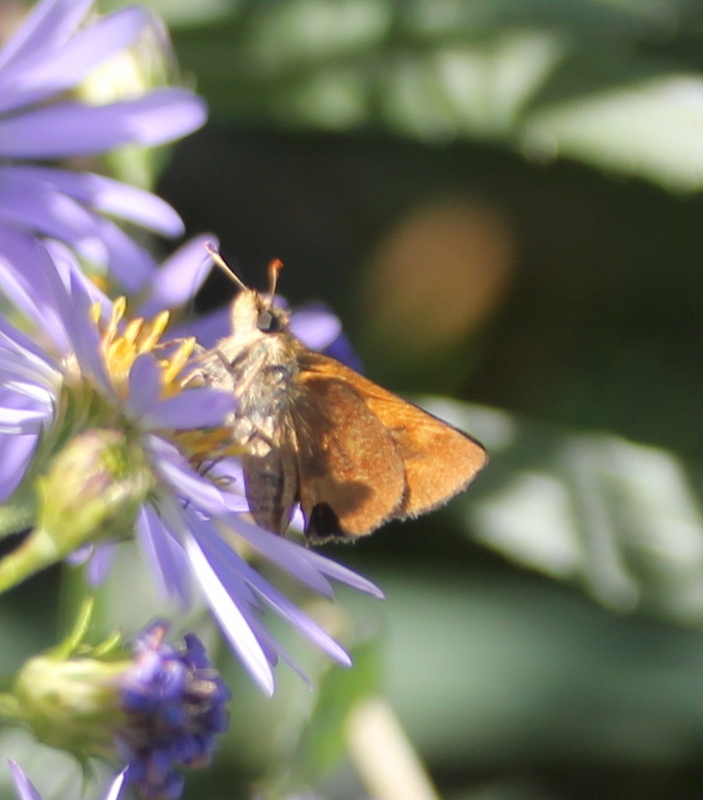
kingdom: Animalia
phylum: Arthropoda
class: Insecta
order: Lepidoptera
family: Hesperiidae
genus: Ochlodes
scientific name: Ochlodes sylvanoides
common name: Woodland skipper
